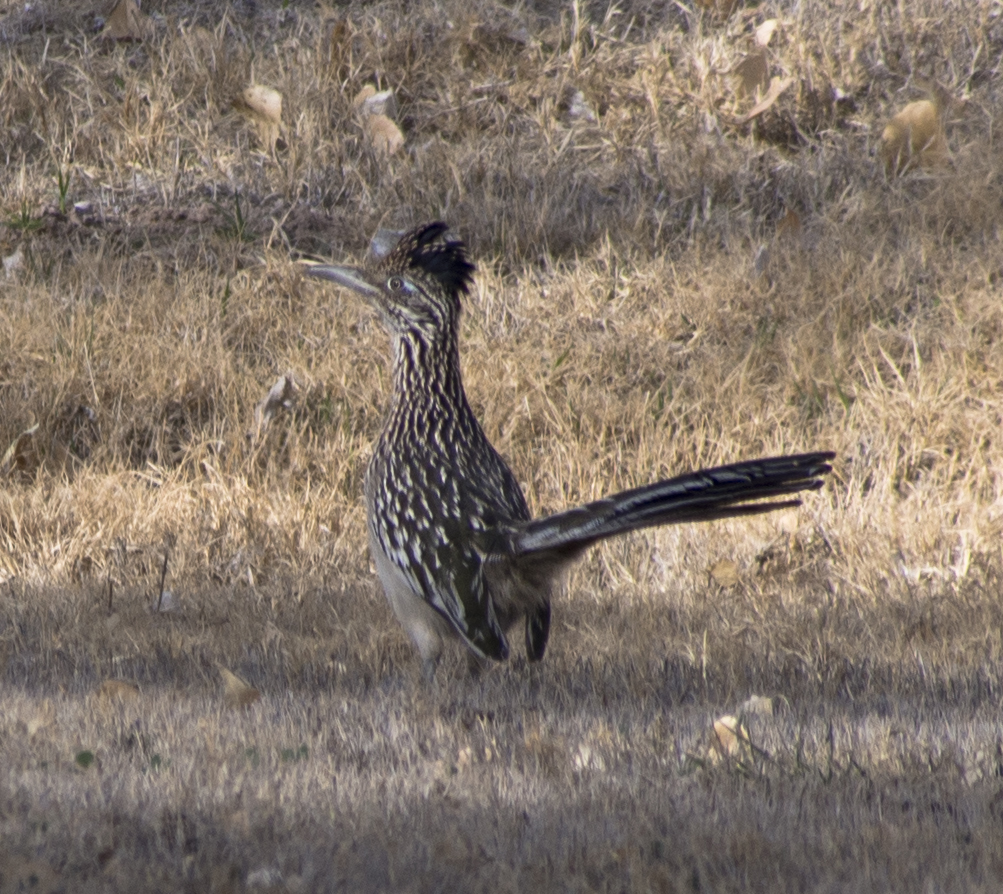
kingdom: Animalia
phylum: Chordata
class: Aves
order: Cuculiformes
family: Cuculidae
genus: Geococcyx
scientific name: Geococcyx californianus
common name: Greater roadrunner
